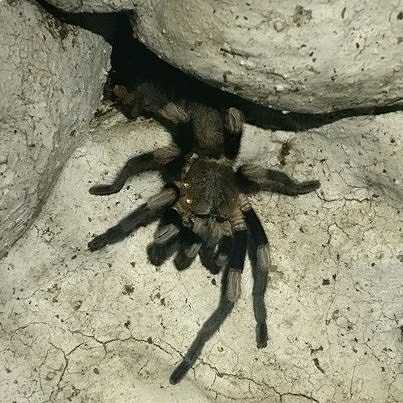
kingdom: Animalia
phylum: Arthropoda
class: Arachnida
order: Araneae
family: Theraphosidae
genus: Haplocosmia
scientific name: Haplocosmia himalayana
